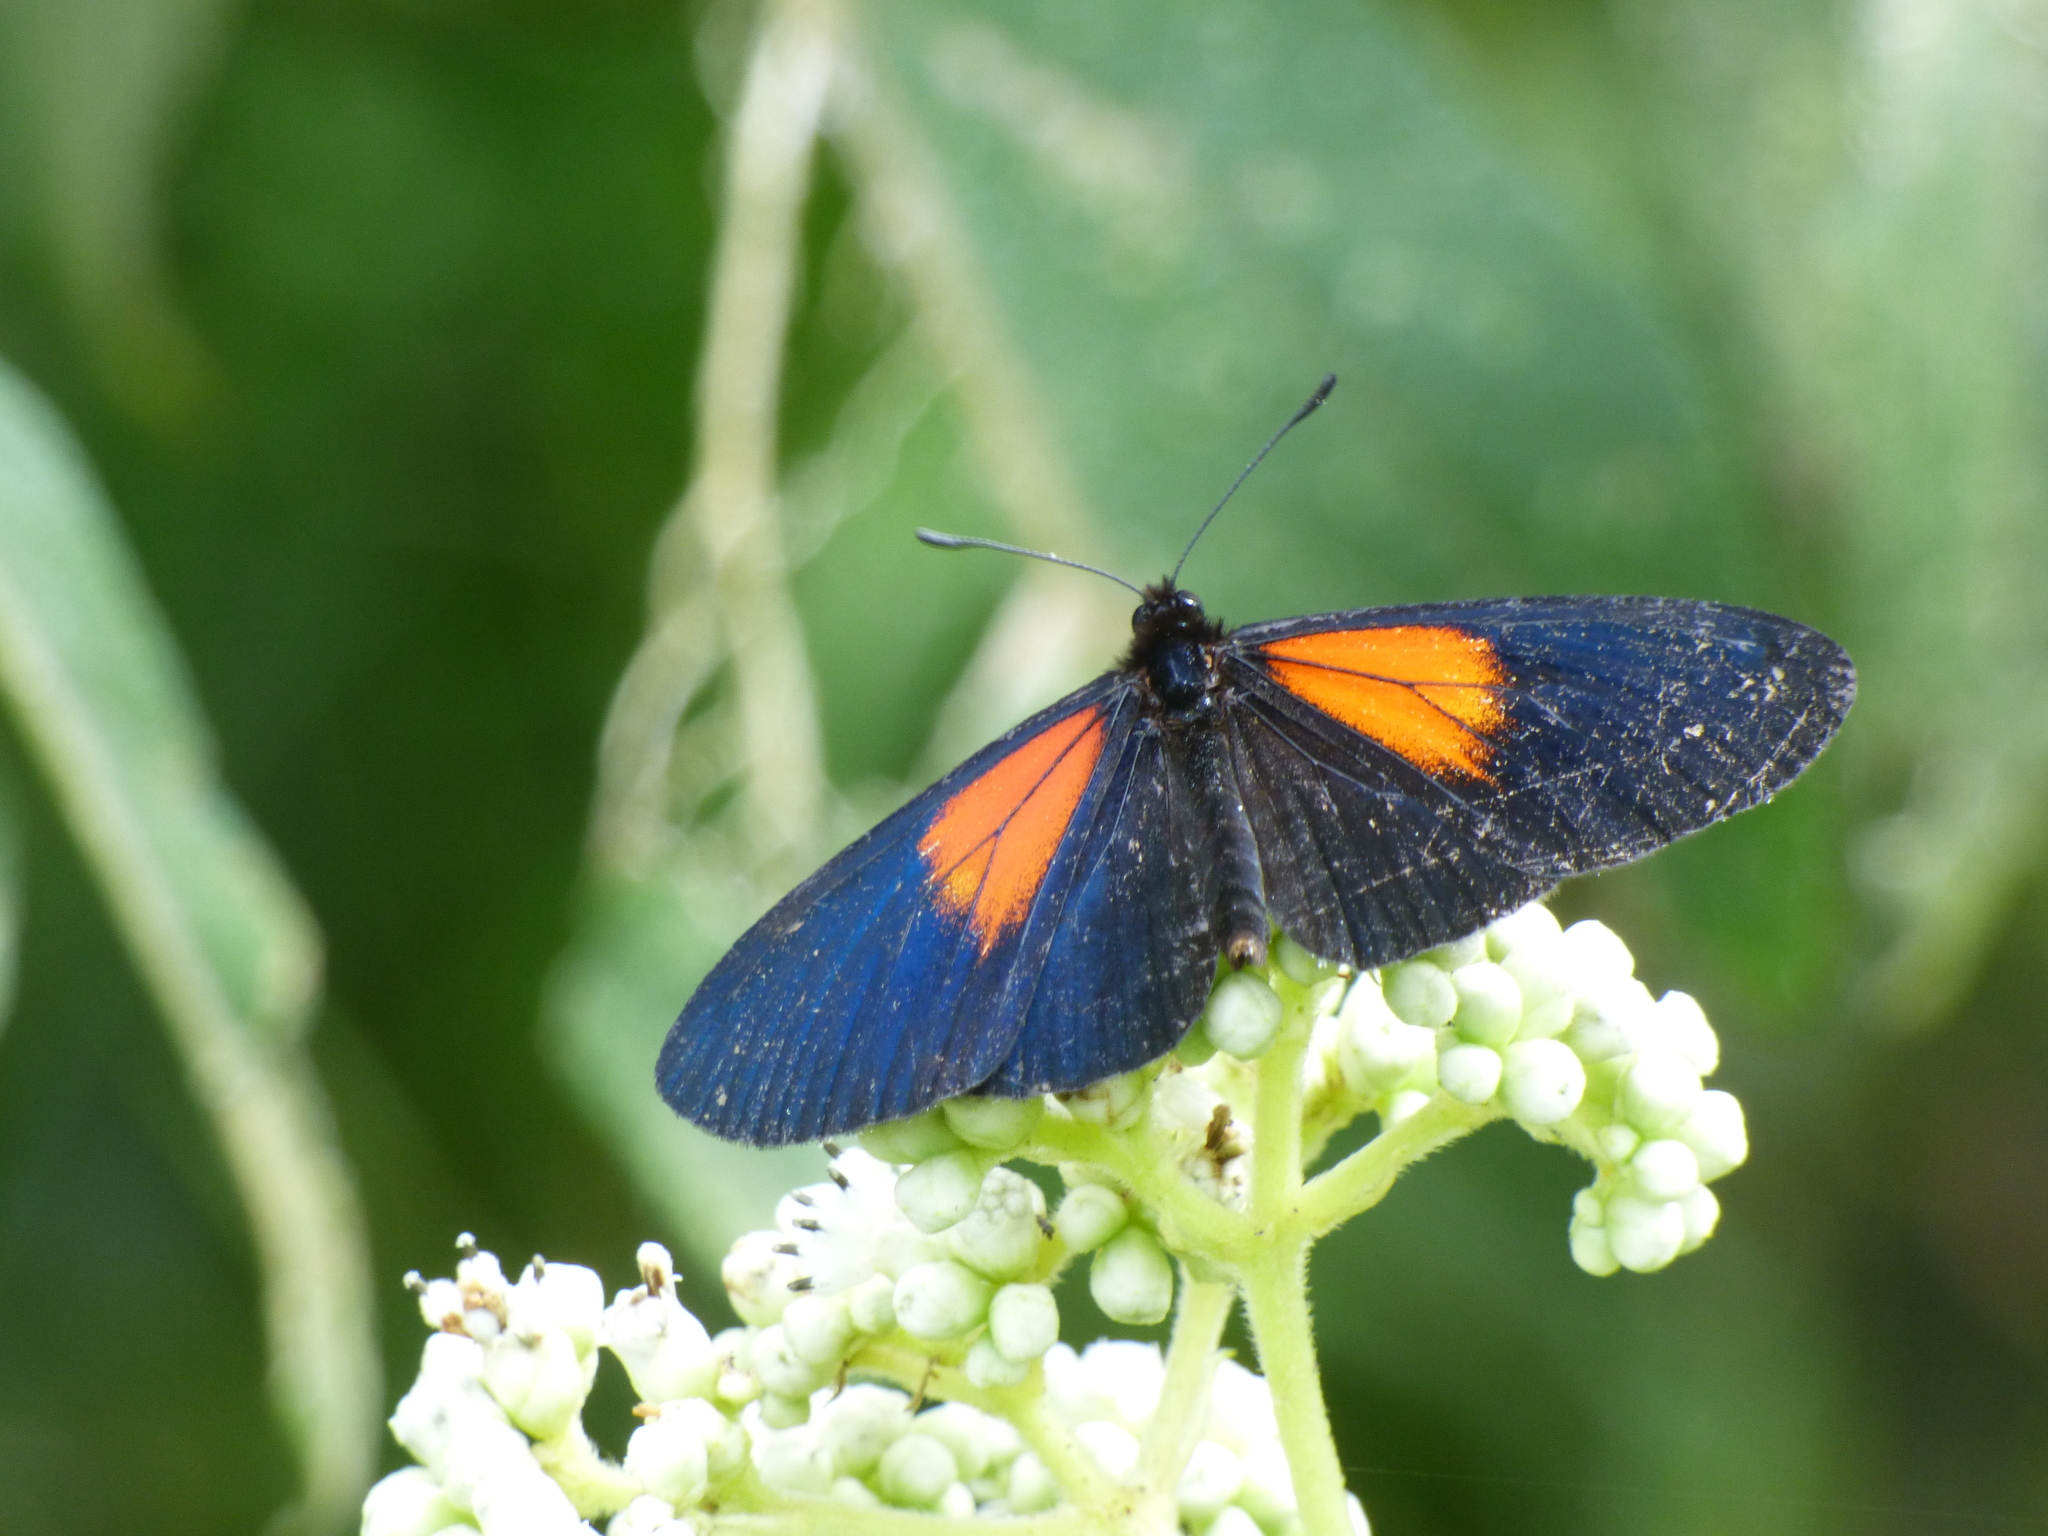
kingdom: Animalia
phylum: Arthropoda
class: Insecta
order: Lepidoptera
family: Nymphalidae
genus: Acraea
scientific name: Acraea Altinote ozomene
